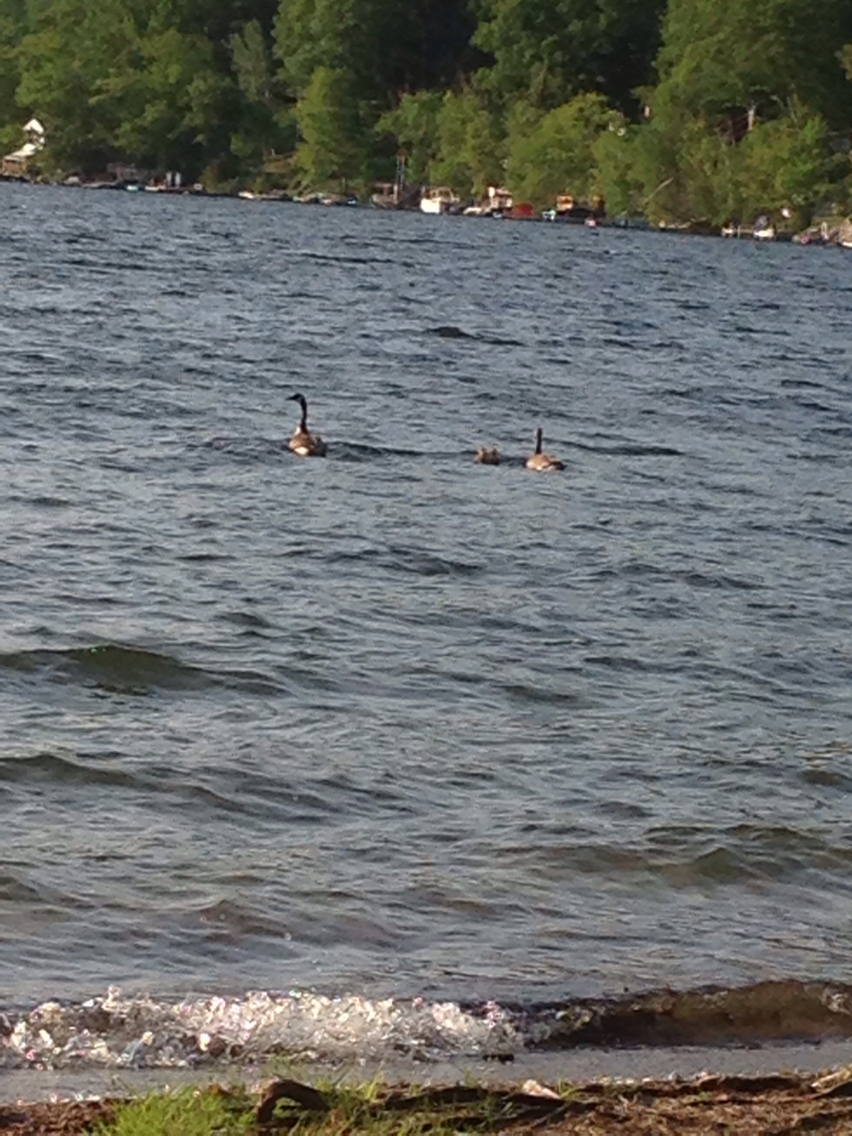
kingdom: Animalia
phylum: Chordata
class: Aves
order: Anseriformes
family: Anatidae
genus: Branta
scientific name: Branta canadensis
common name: Canada goose
